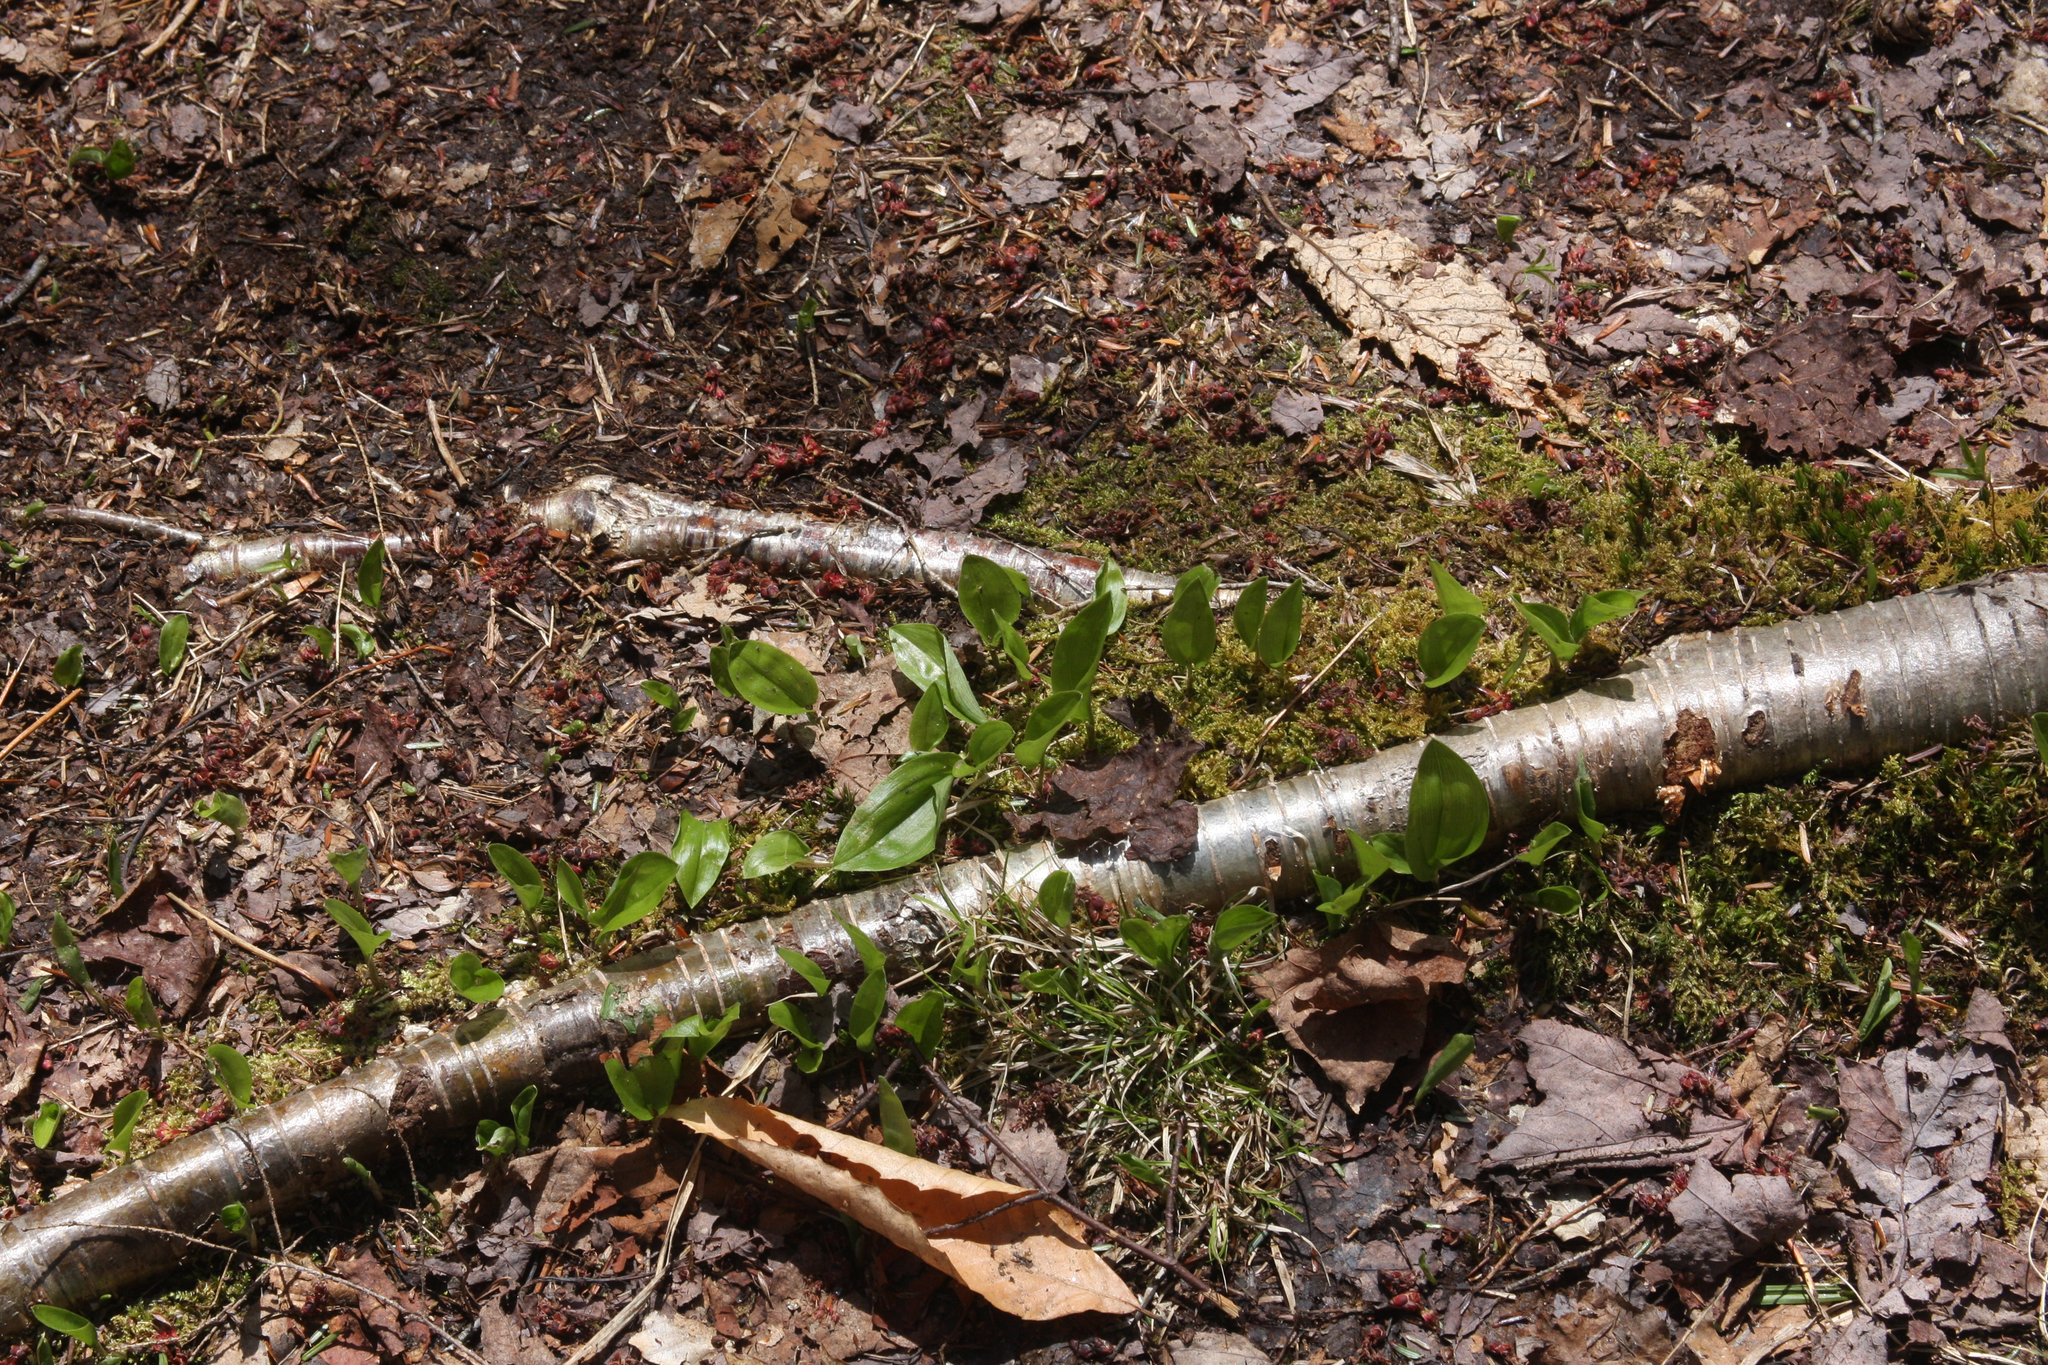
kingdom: Plantae
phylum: Tracheophyta
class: Liliopsida
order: Asparagales
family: Asparagaceae
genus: Maianthemum
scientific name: Maianthemum canadense
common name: False lily-of-the-valley
